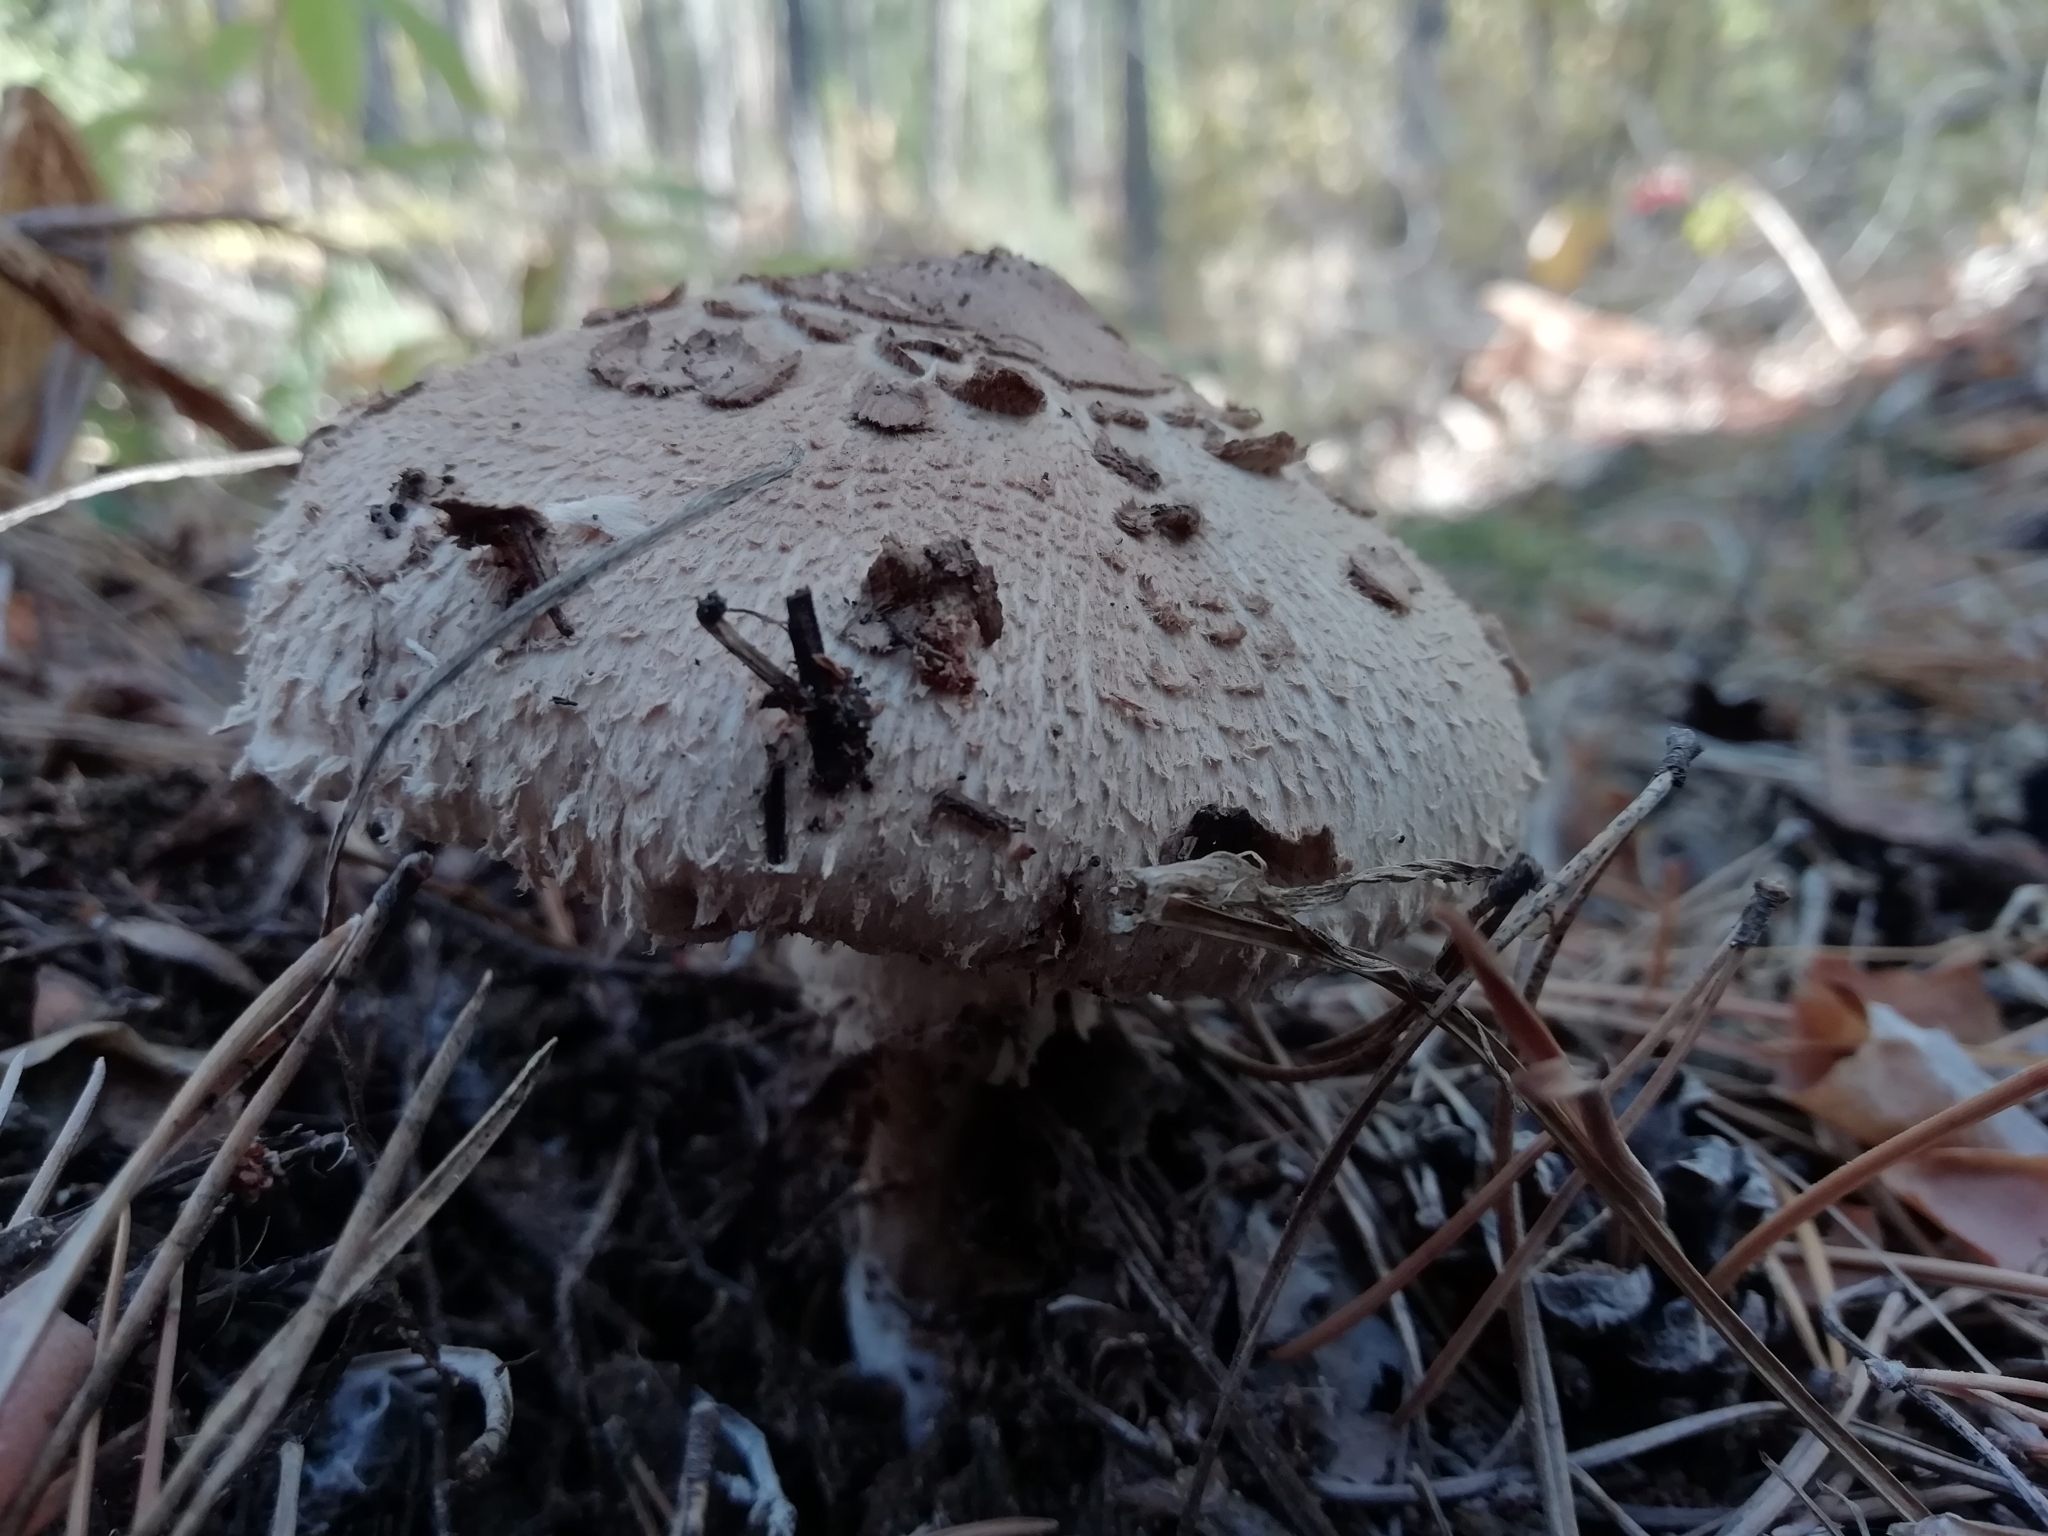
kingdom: Fungi
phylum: Basidiomycota
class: Agaricomycetes
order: Agaricales
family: Agaricaceae
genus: Macrolepiota
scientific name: Macrolepiota procera
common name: Parasol
